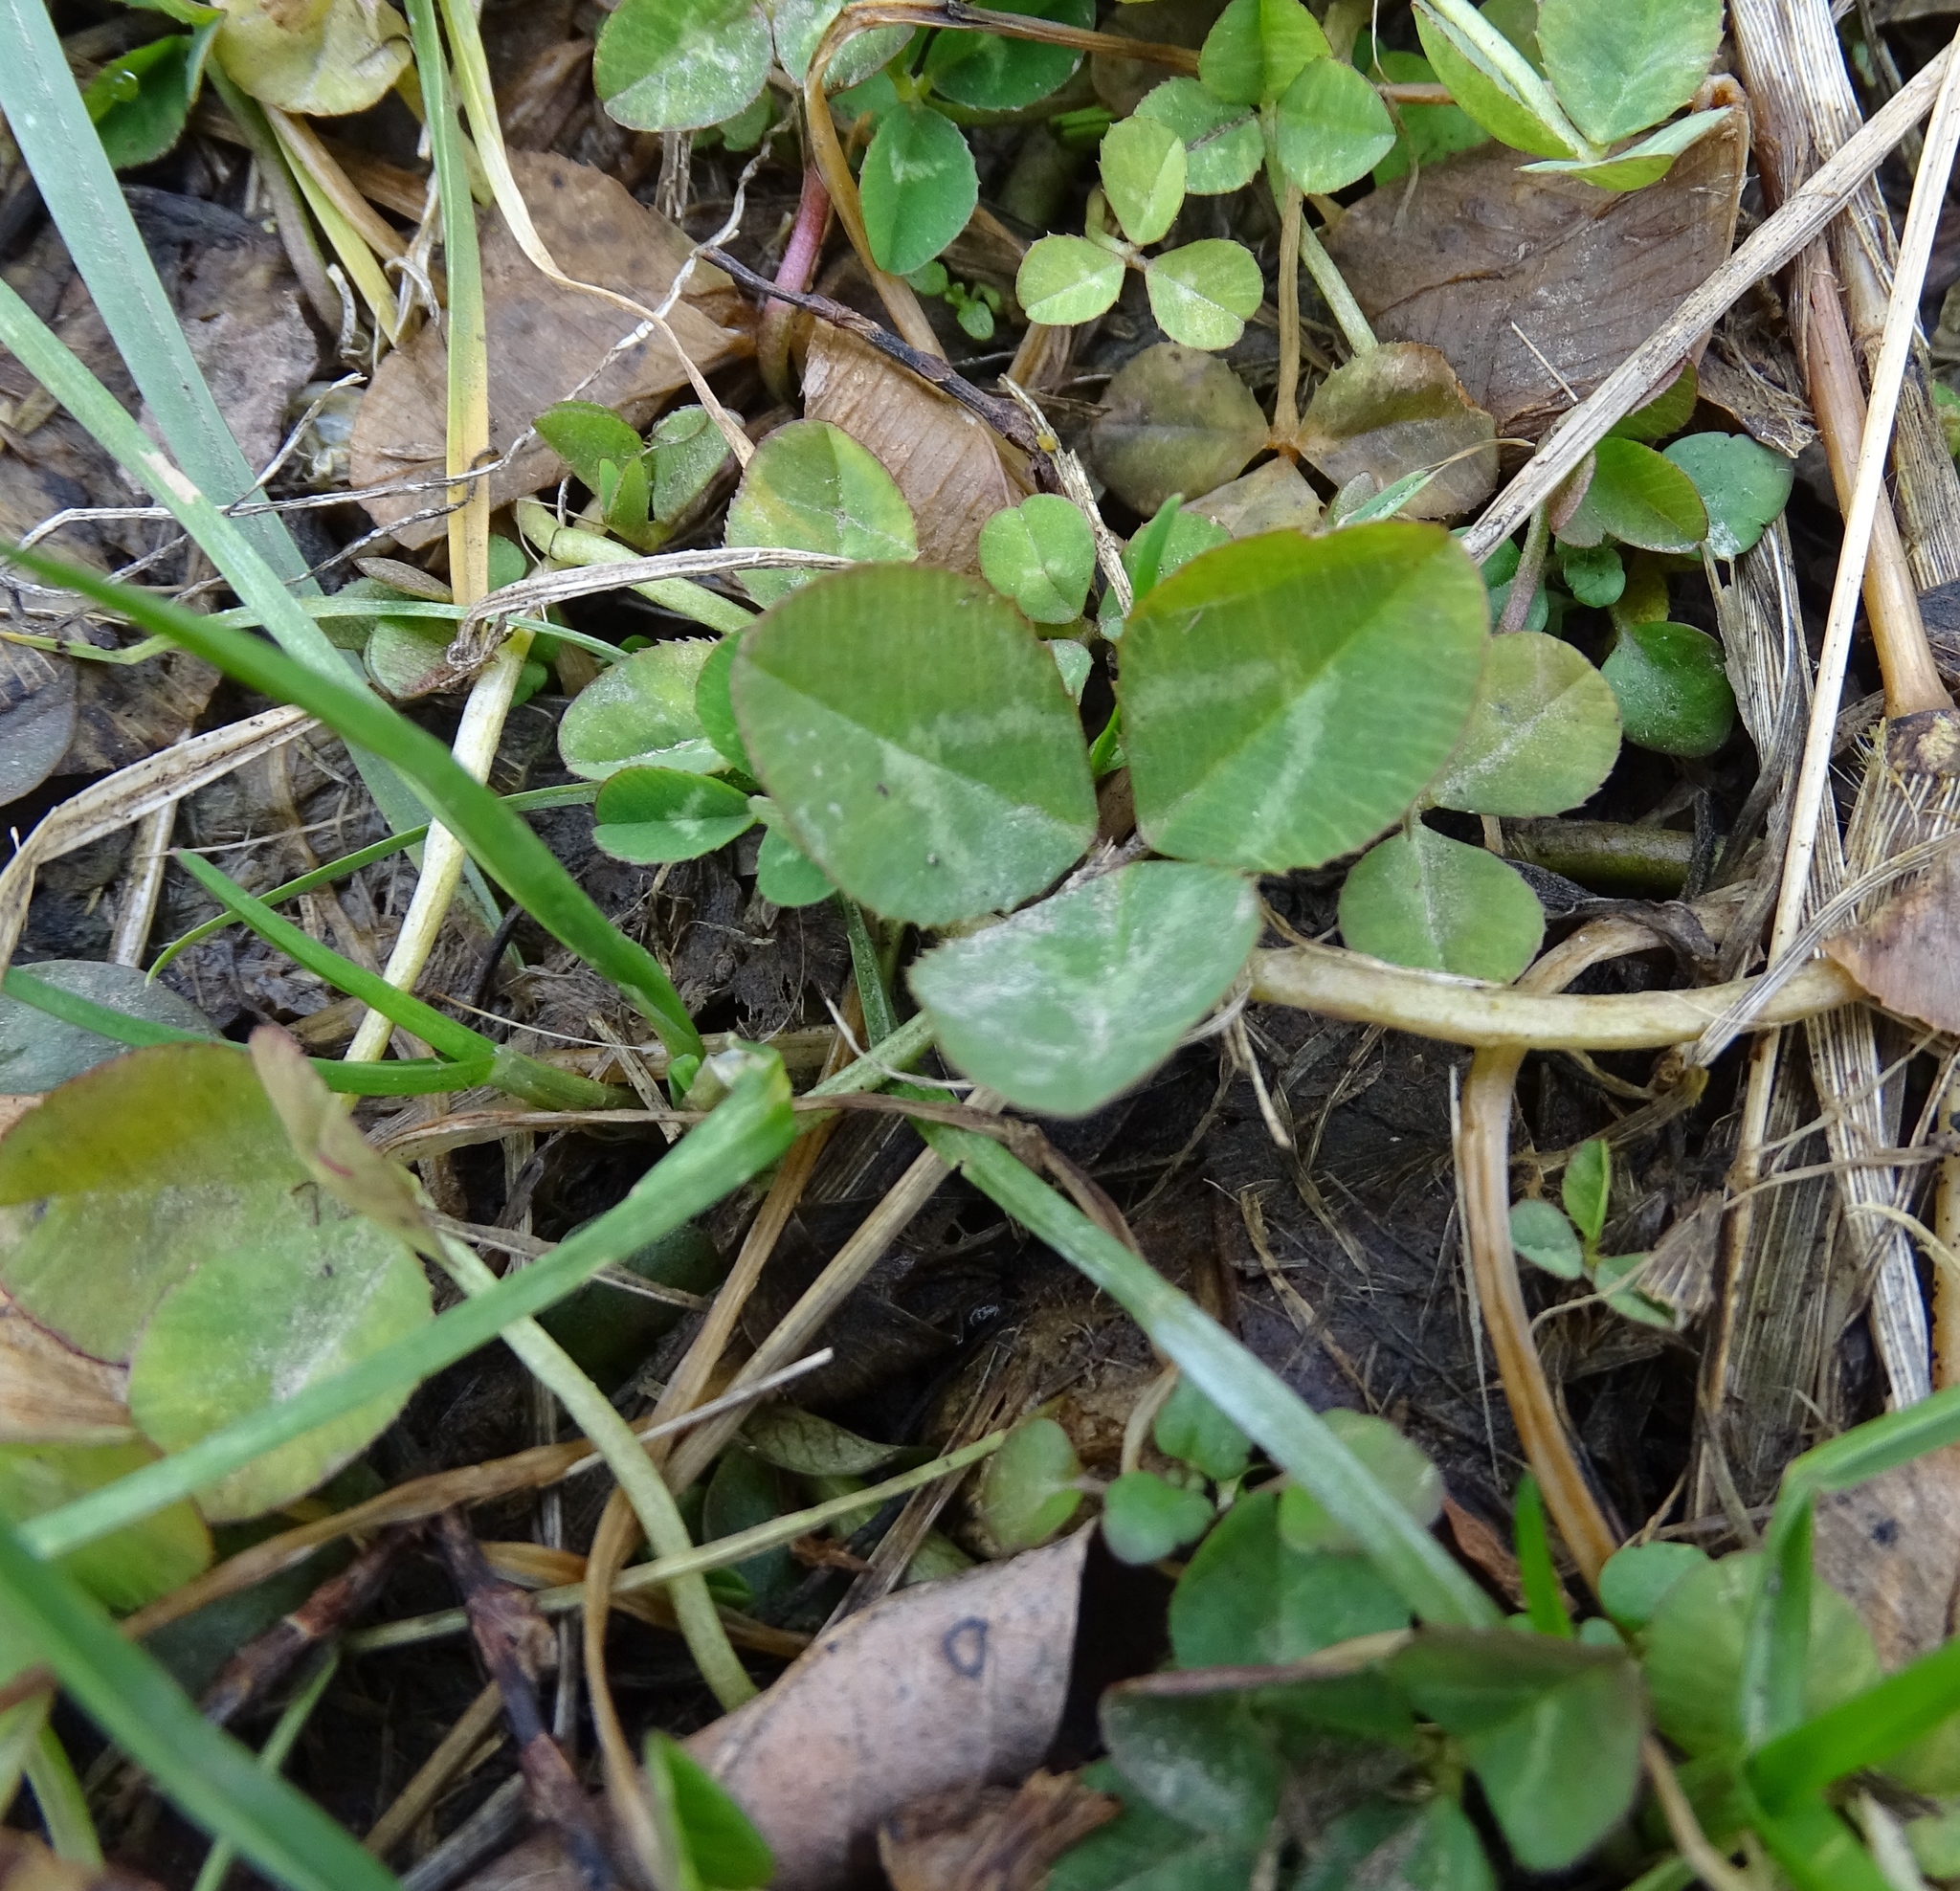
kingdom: Plantae
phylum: Tracheophyta
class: Magnoliopsida
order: Fabales
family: Fabaceae
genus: Trifolium
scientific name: Trifolium repens
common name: White clover
